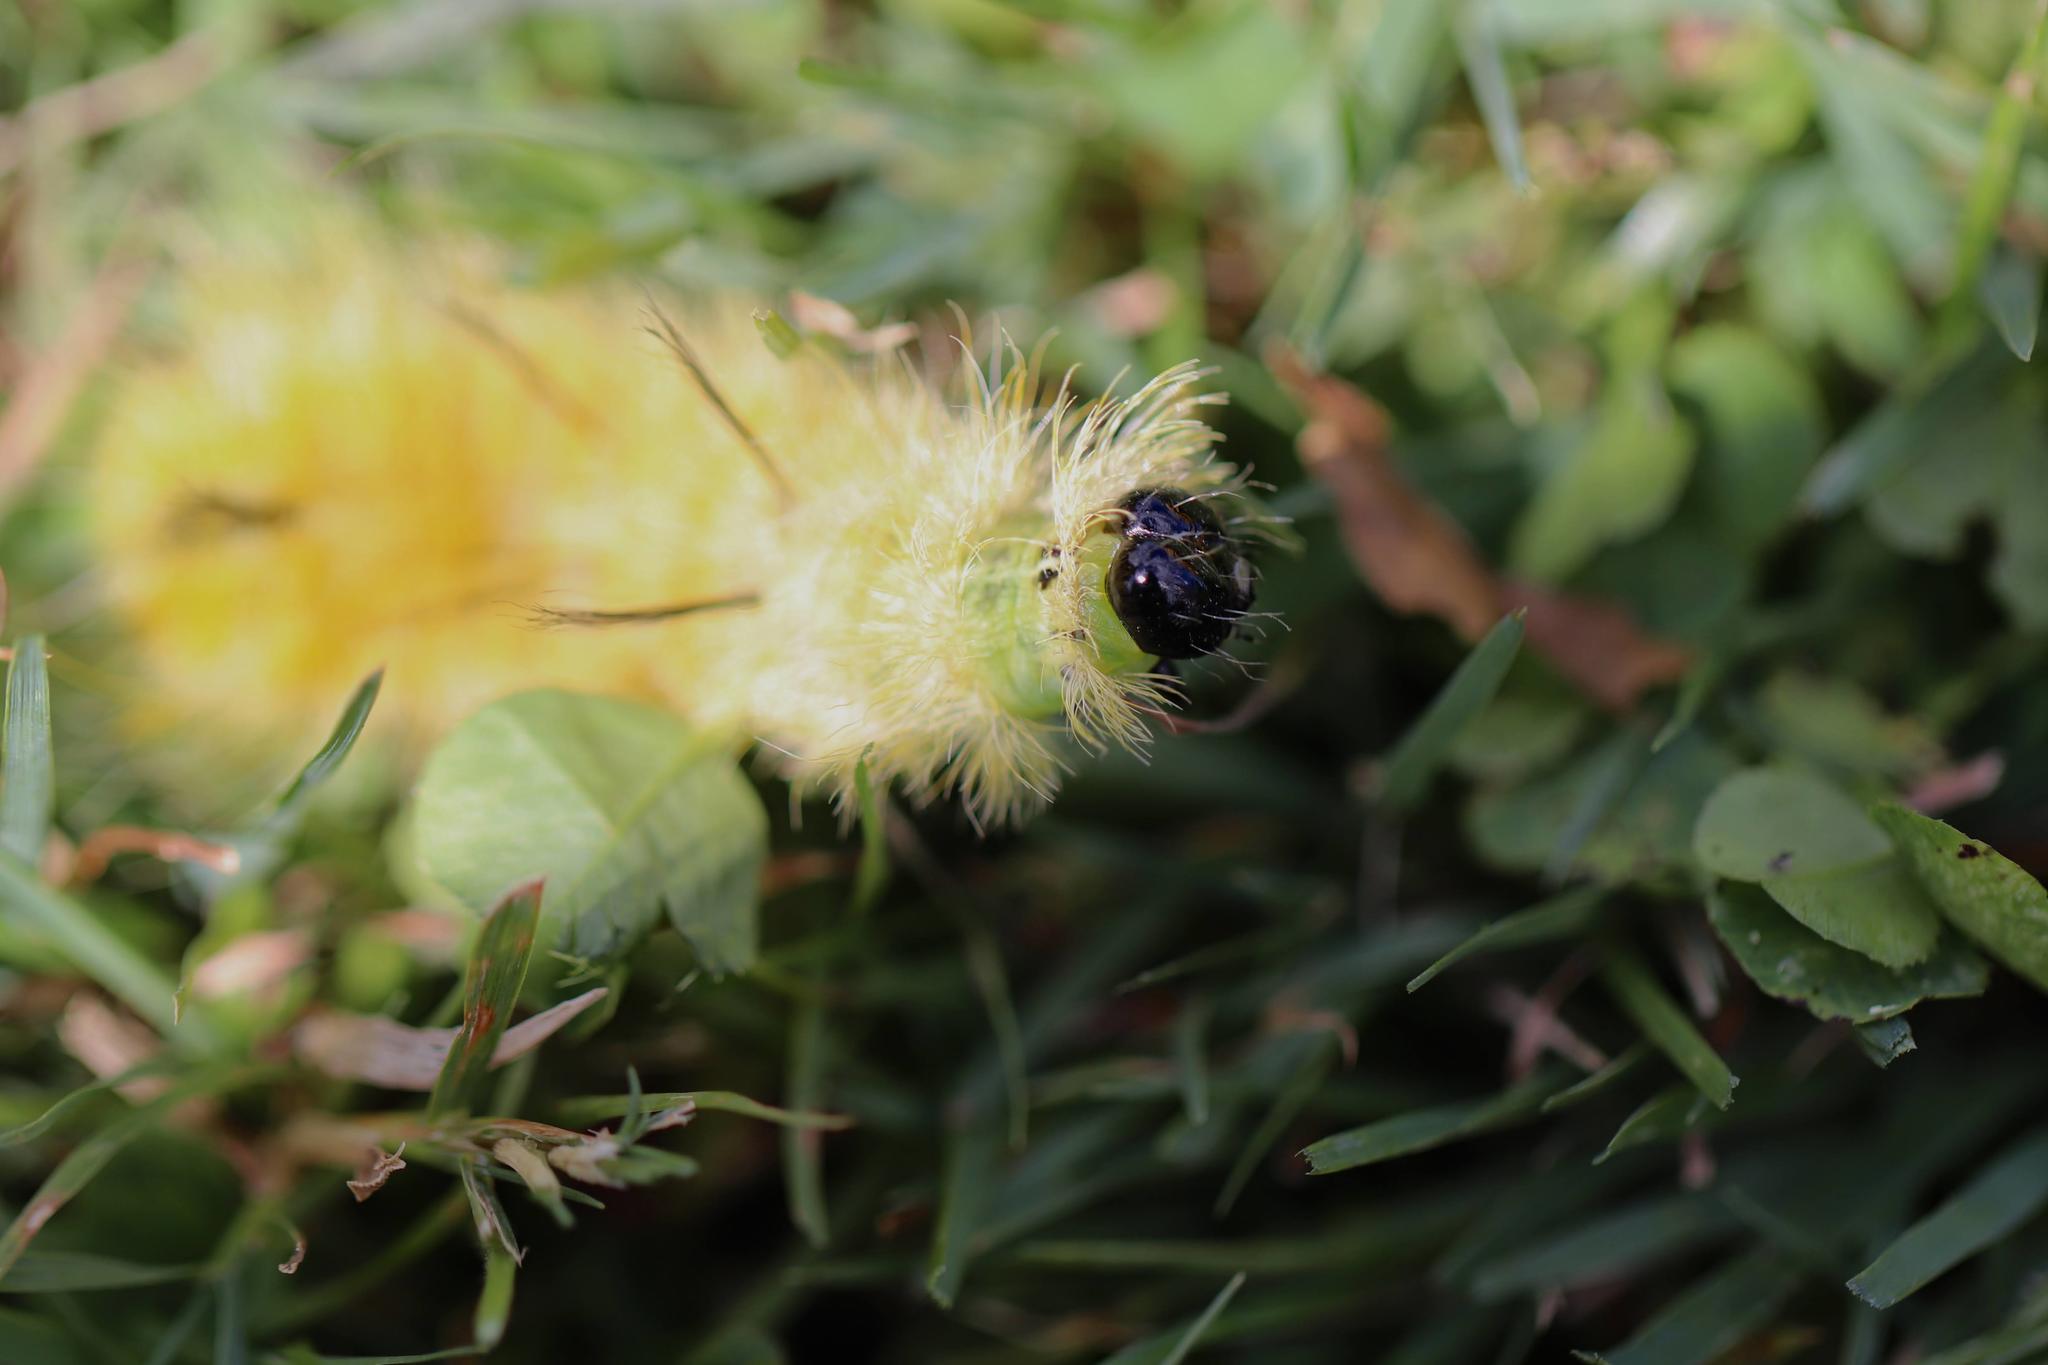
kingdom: Animalia
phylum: Arthropoda
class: Insecta
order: Lepidoptera
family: Noctuidae
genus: Acronicta
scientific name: Acronicta americana
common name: American dagger
